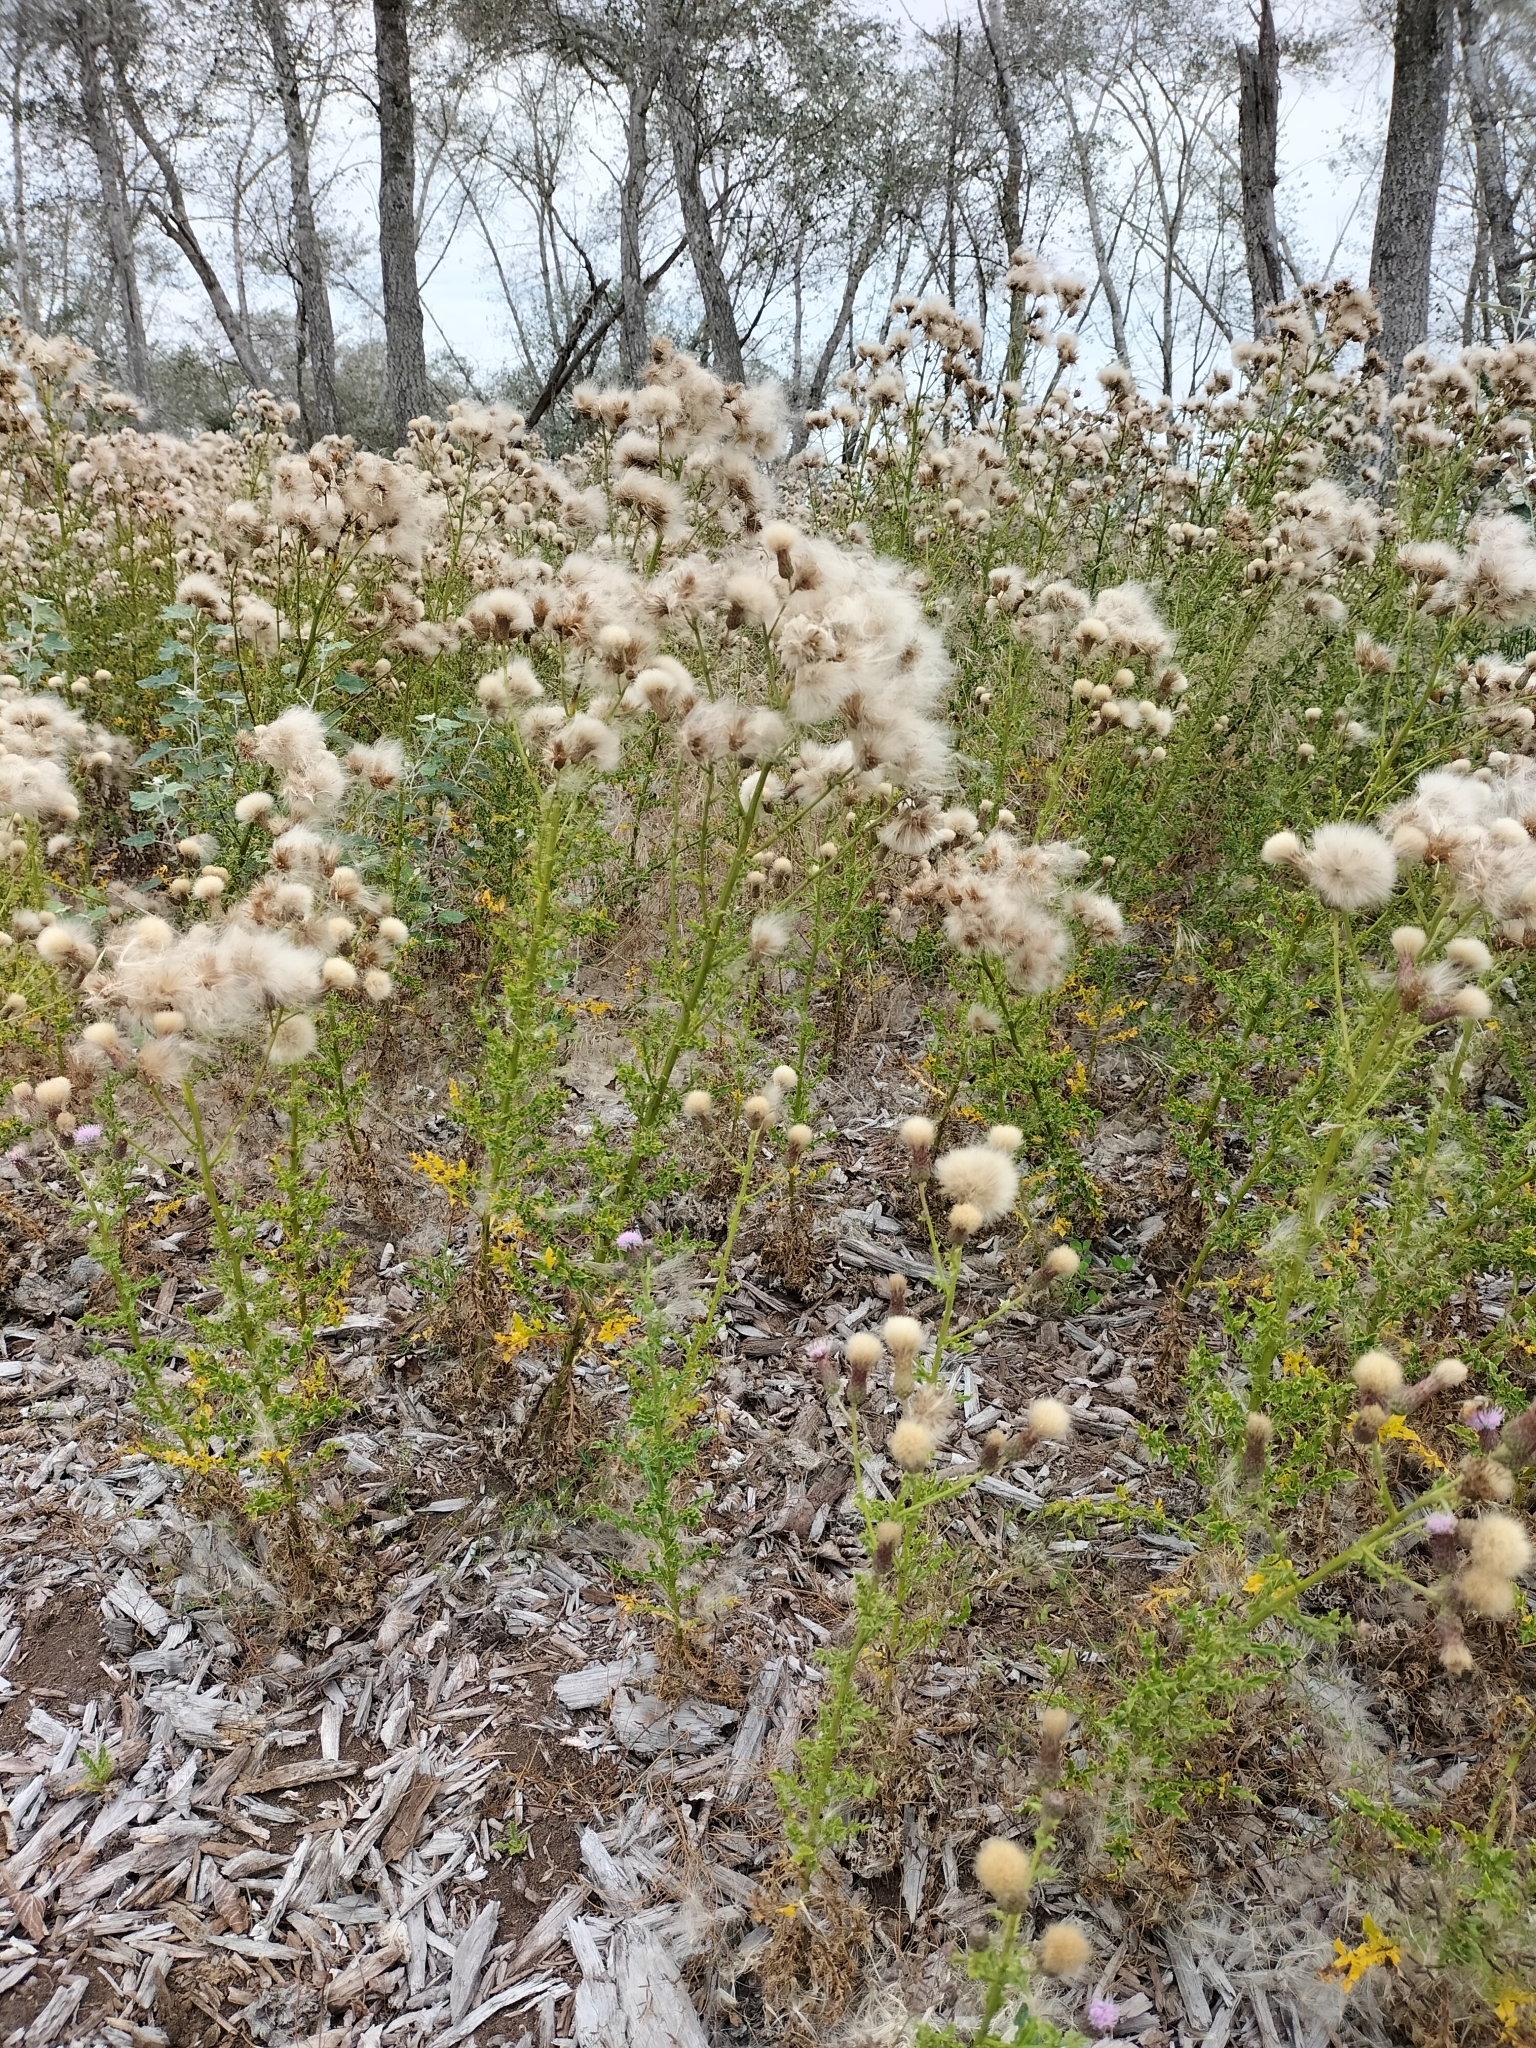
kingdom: Plantae
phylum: Tracheophyta
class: Magnoliopsida
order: Asterales
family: Asteraceae
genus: Cirsium
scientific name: Cirsium arvense
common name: Creeping thistle
